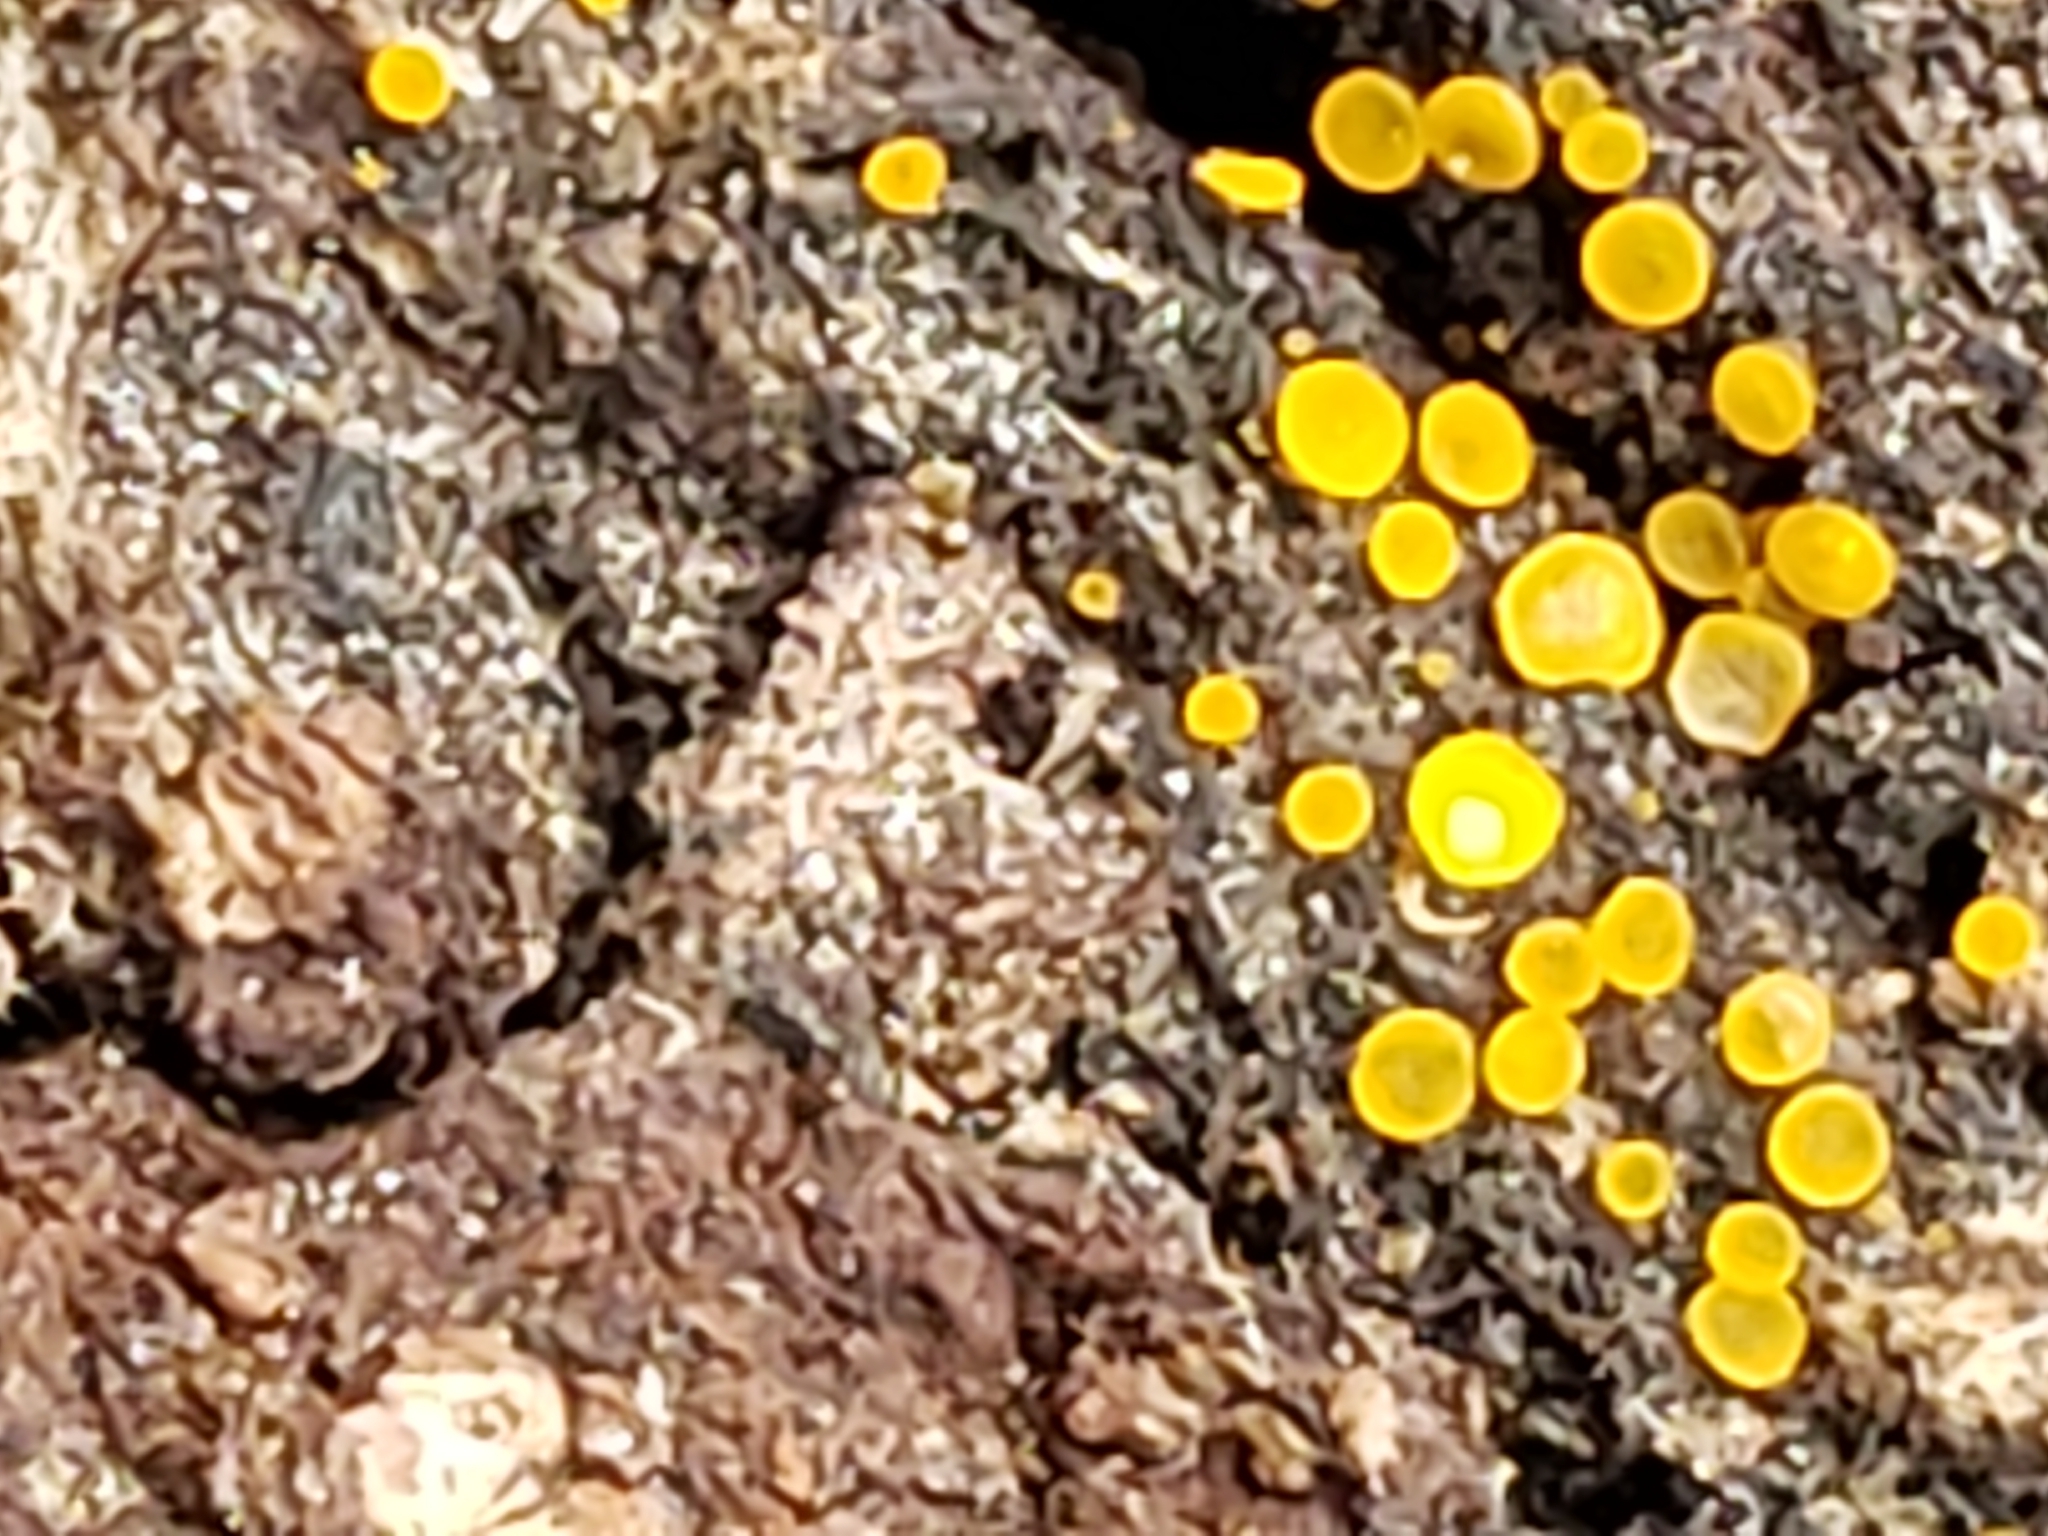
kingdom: Fungi
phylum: Ascomycota
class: Orbiliomycetes
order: Orbiliales
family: Orbiliaceae
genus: Orbilia
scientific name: Orbilia
